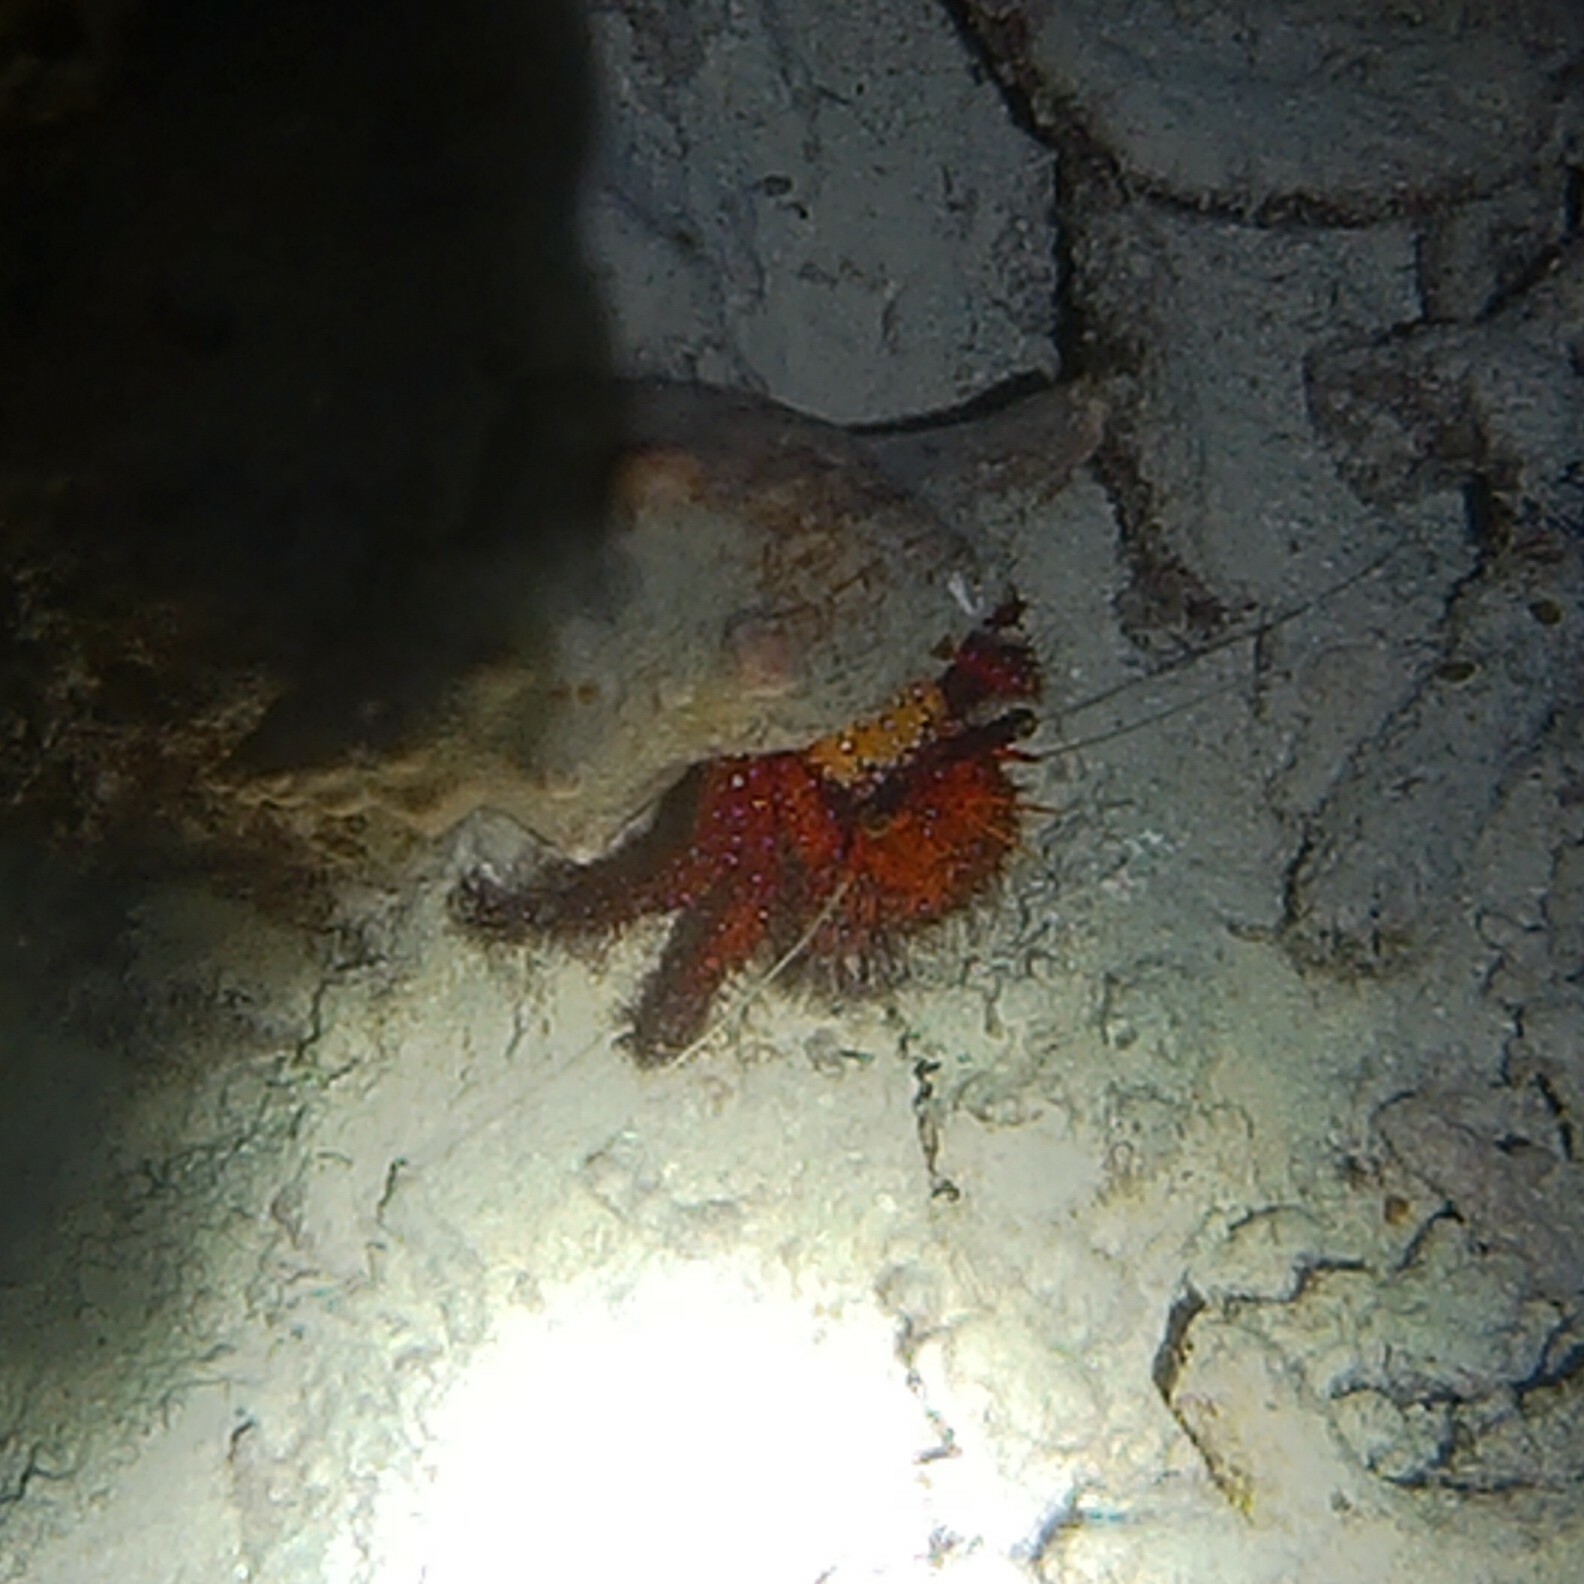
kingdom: Animalia
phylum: Arthropoda
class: Malacostraca
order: Decapoda
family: Diogenidae
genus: Dardanus
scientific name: Dardanus megistos
